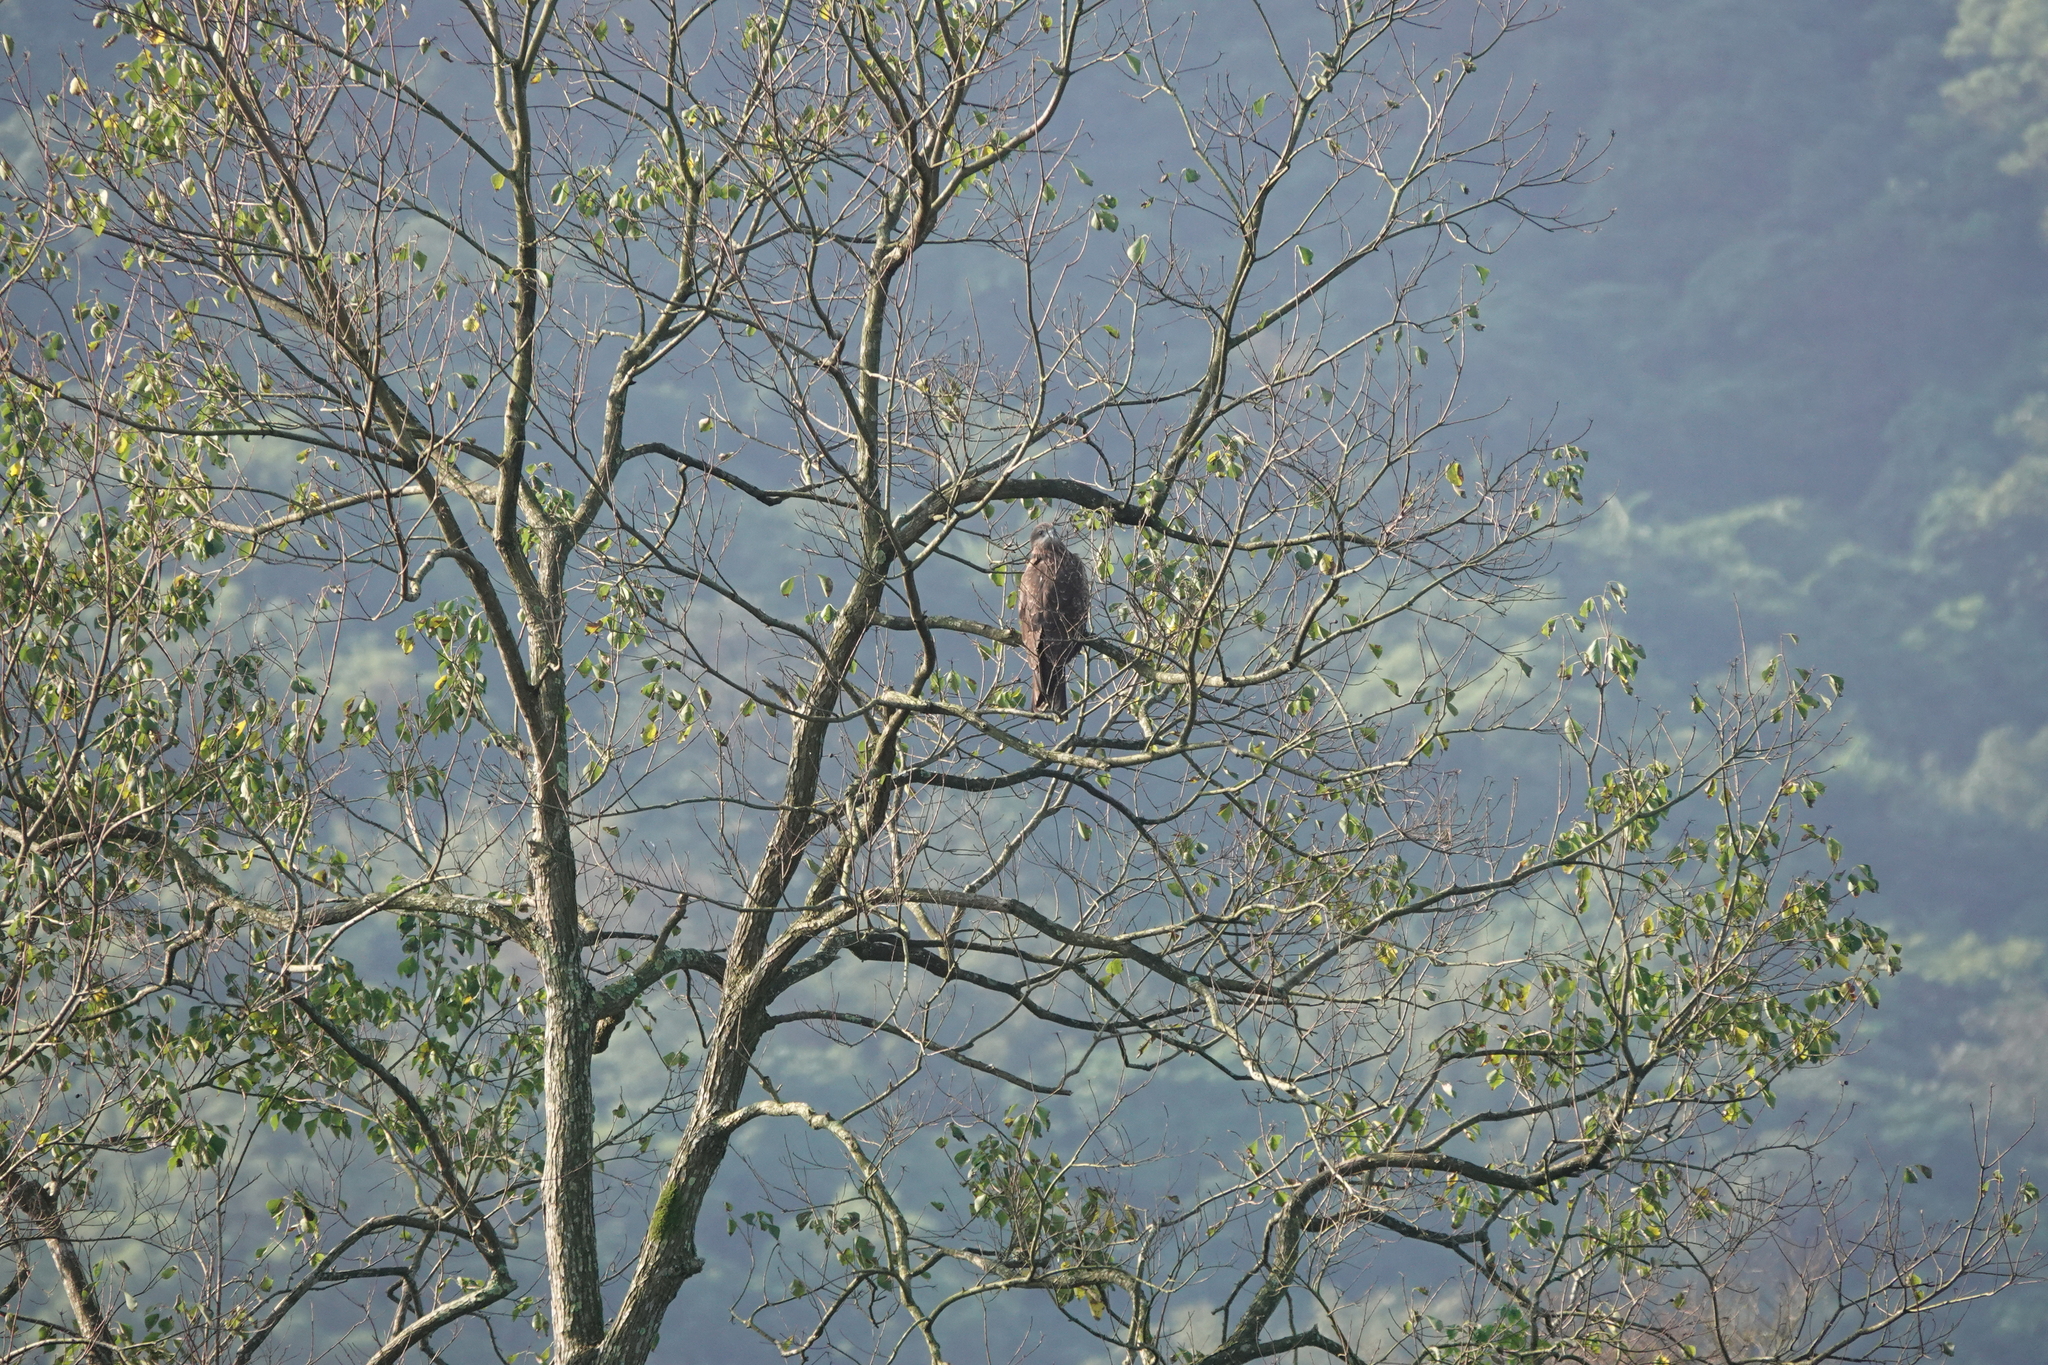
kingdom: Animalia
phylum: Chordata
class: Aves
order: Accipitriformes
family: Accipitridae
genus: Milvus
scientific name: Milvus migrans
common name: Black kite
